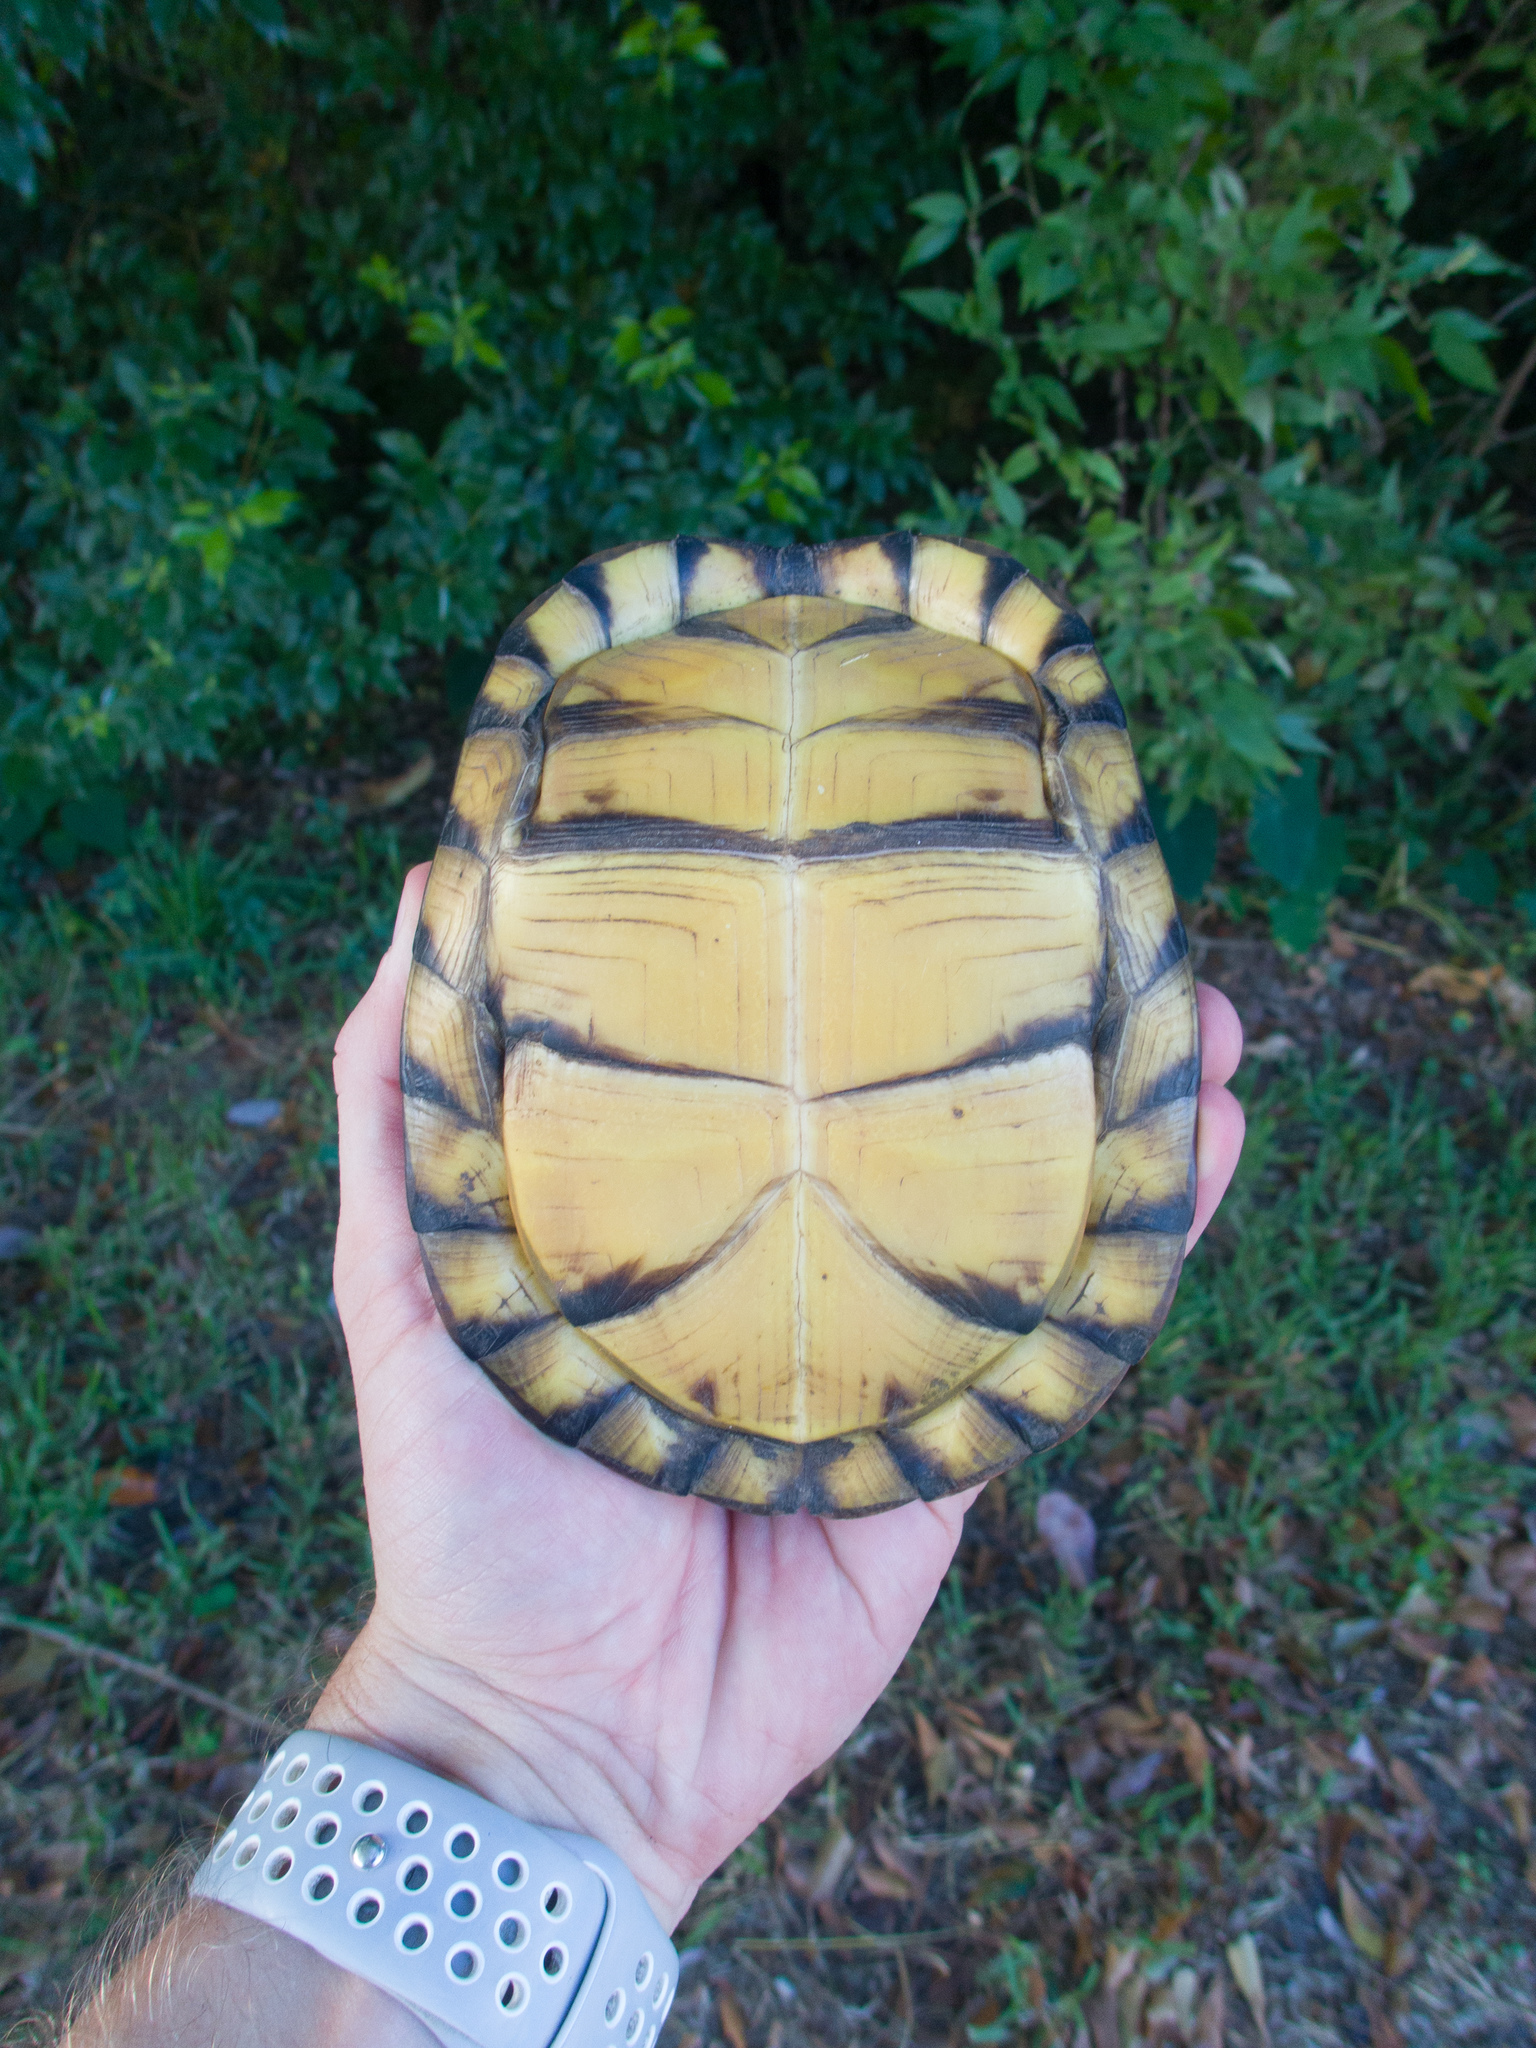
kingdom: Animalia
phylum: Chordata
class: Testudines
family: Emydidae
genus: Terrapene
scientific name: Terrapene carolina
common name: Common box turtle
